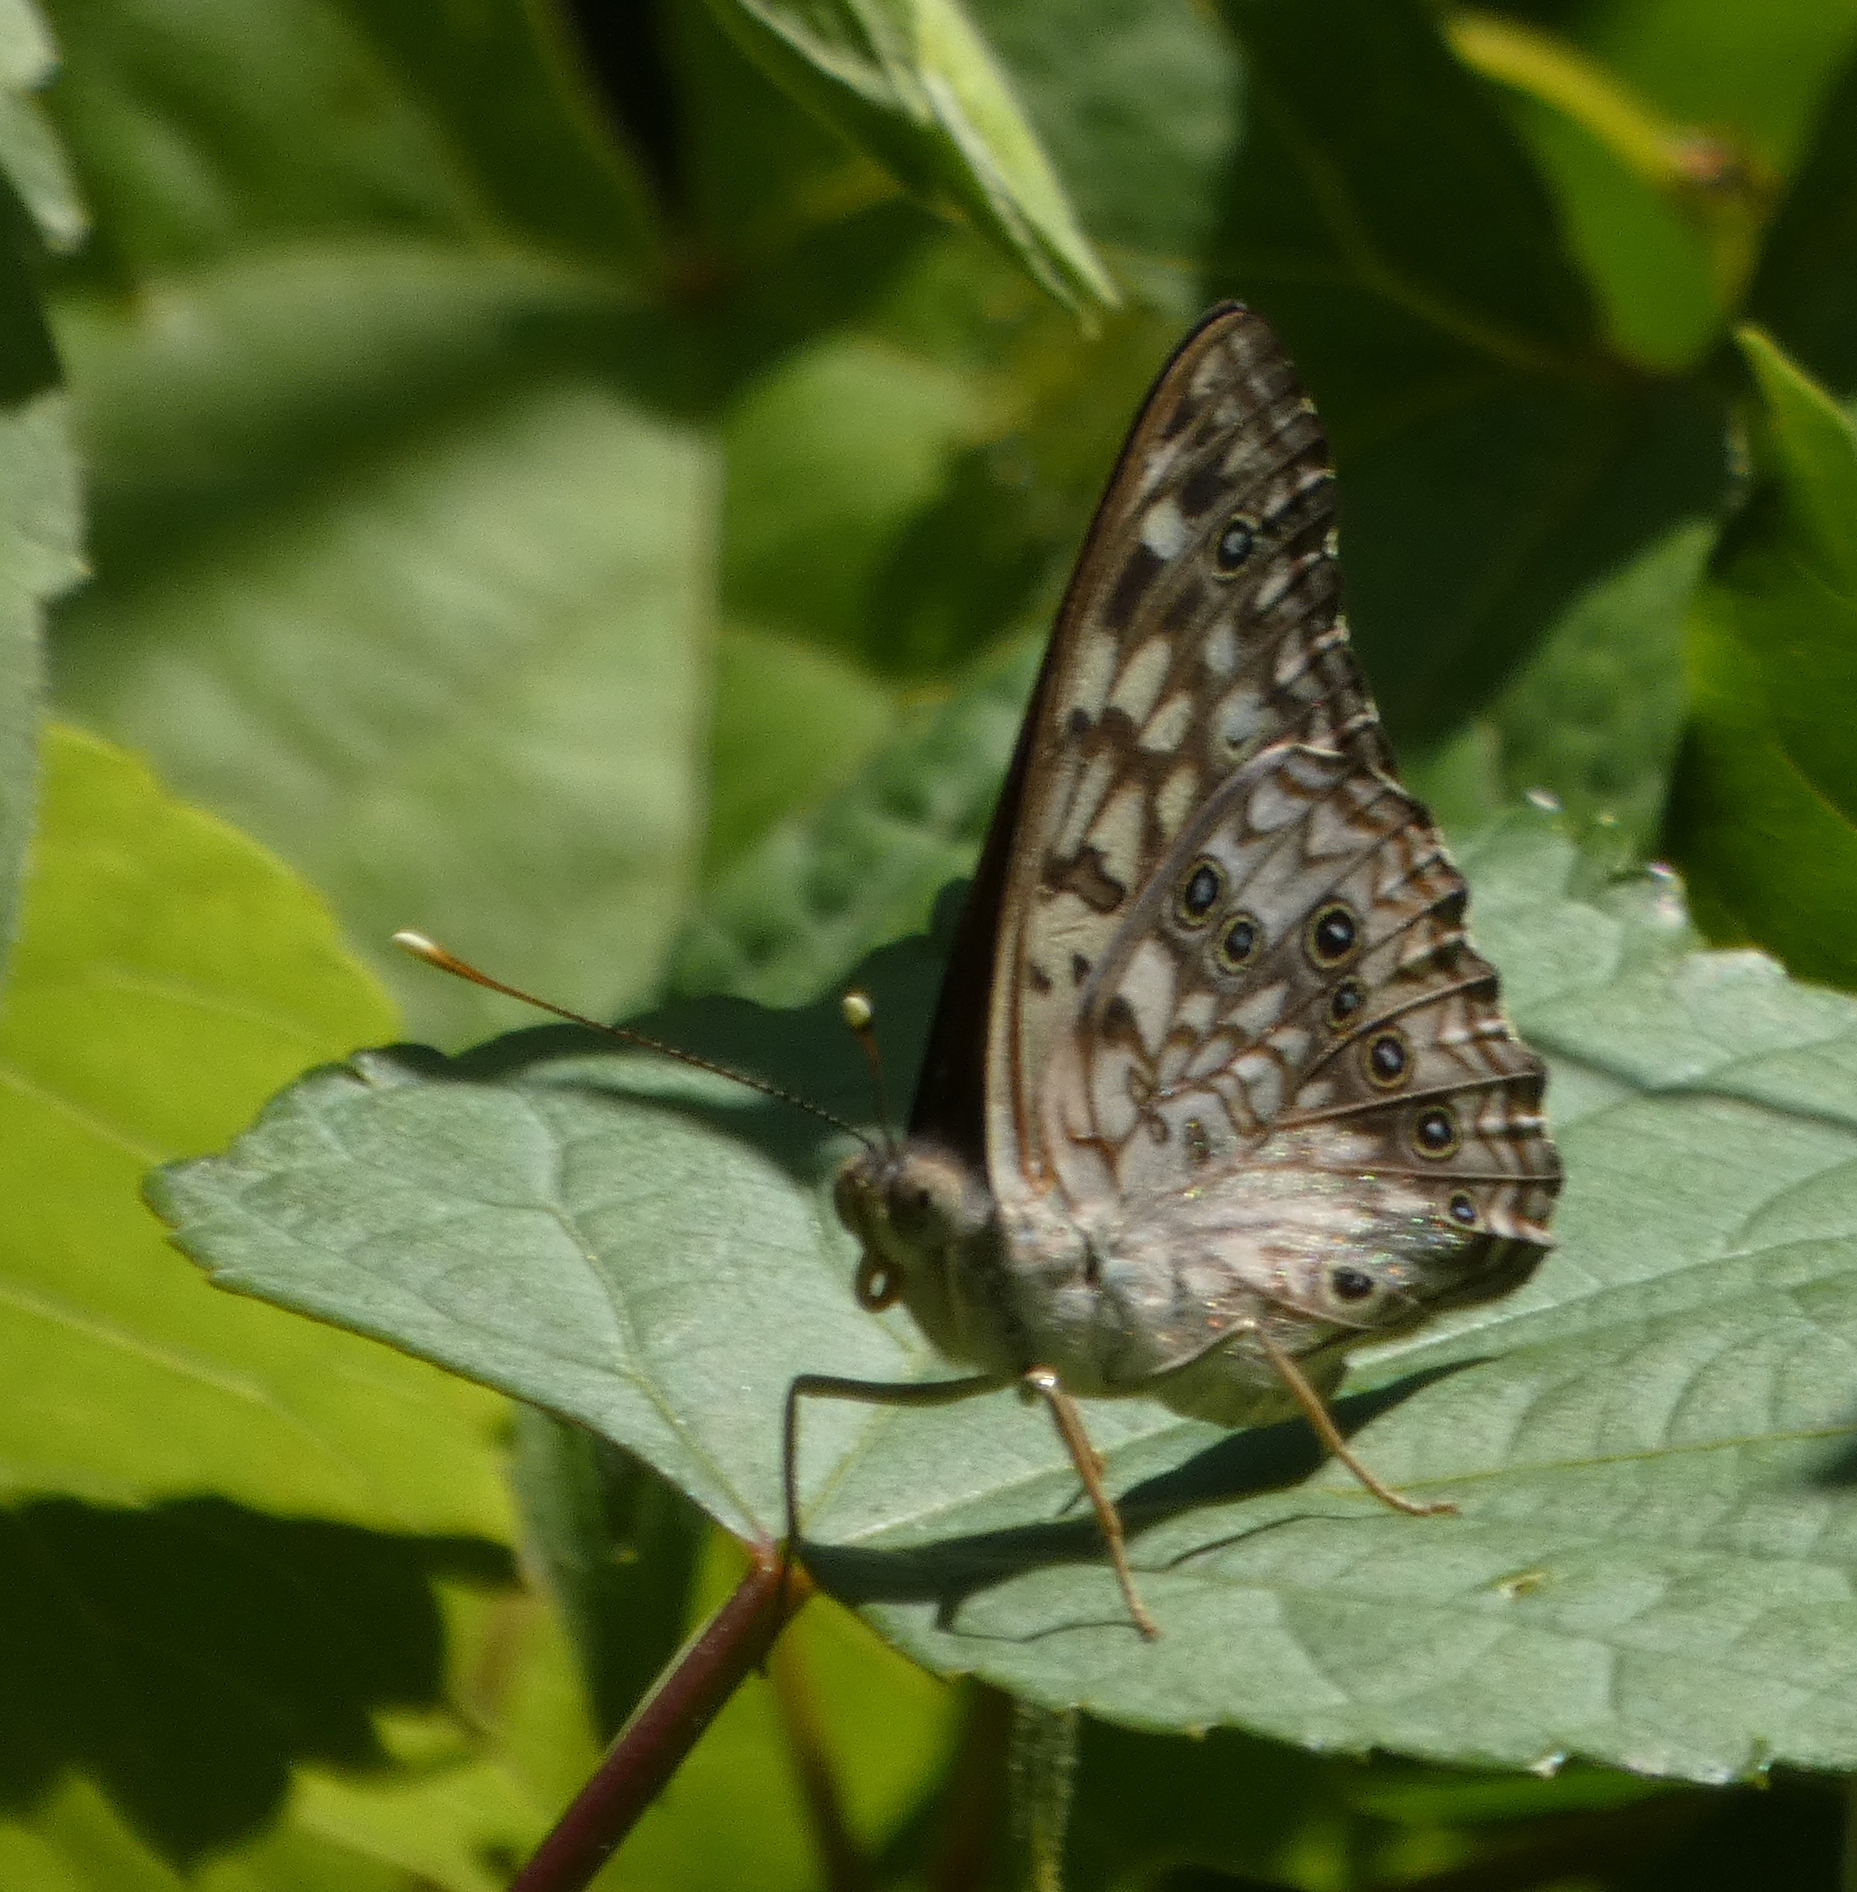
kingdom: Animalia
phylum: Arthropoda
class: Insecta
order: Lepidoptera
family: Nymphalidae
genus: Asterocampa
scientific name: Asterocampa celtis
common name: Hackberry emperor
